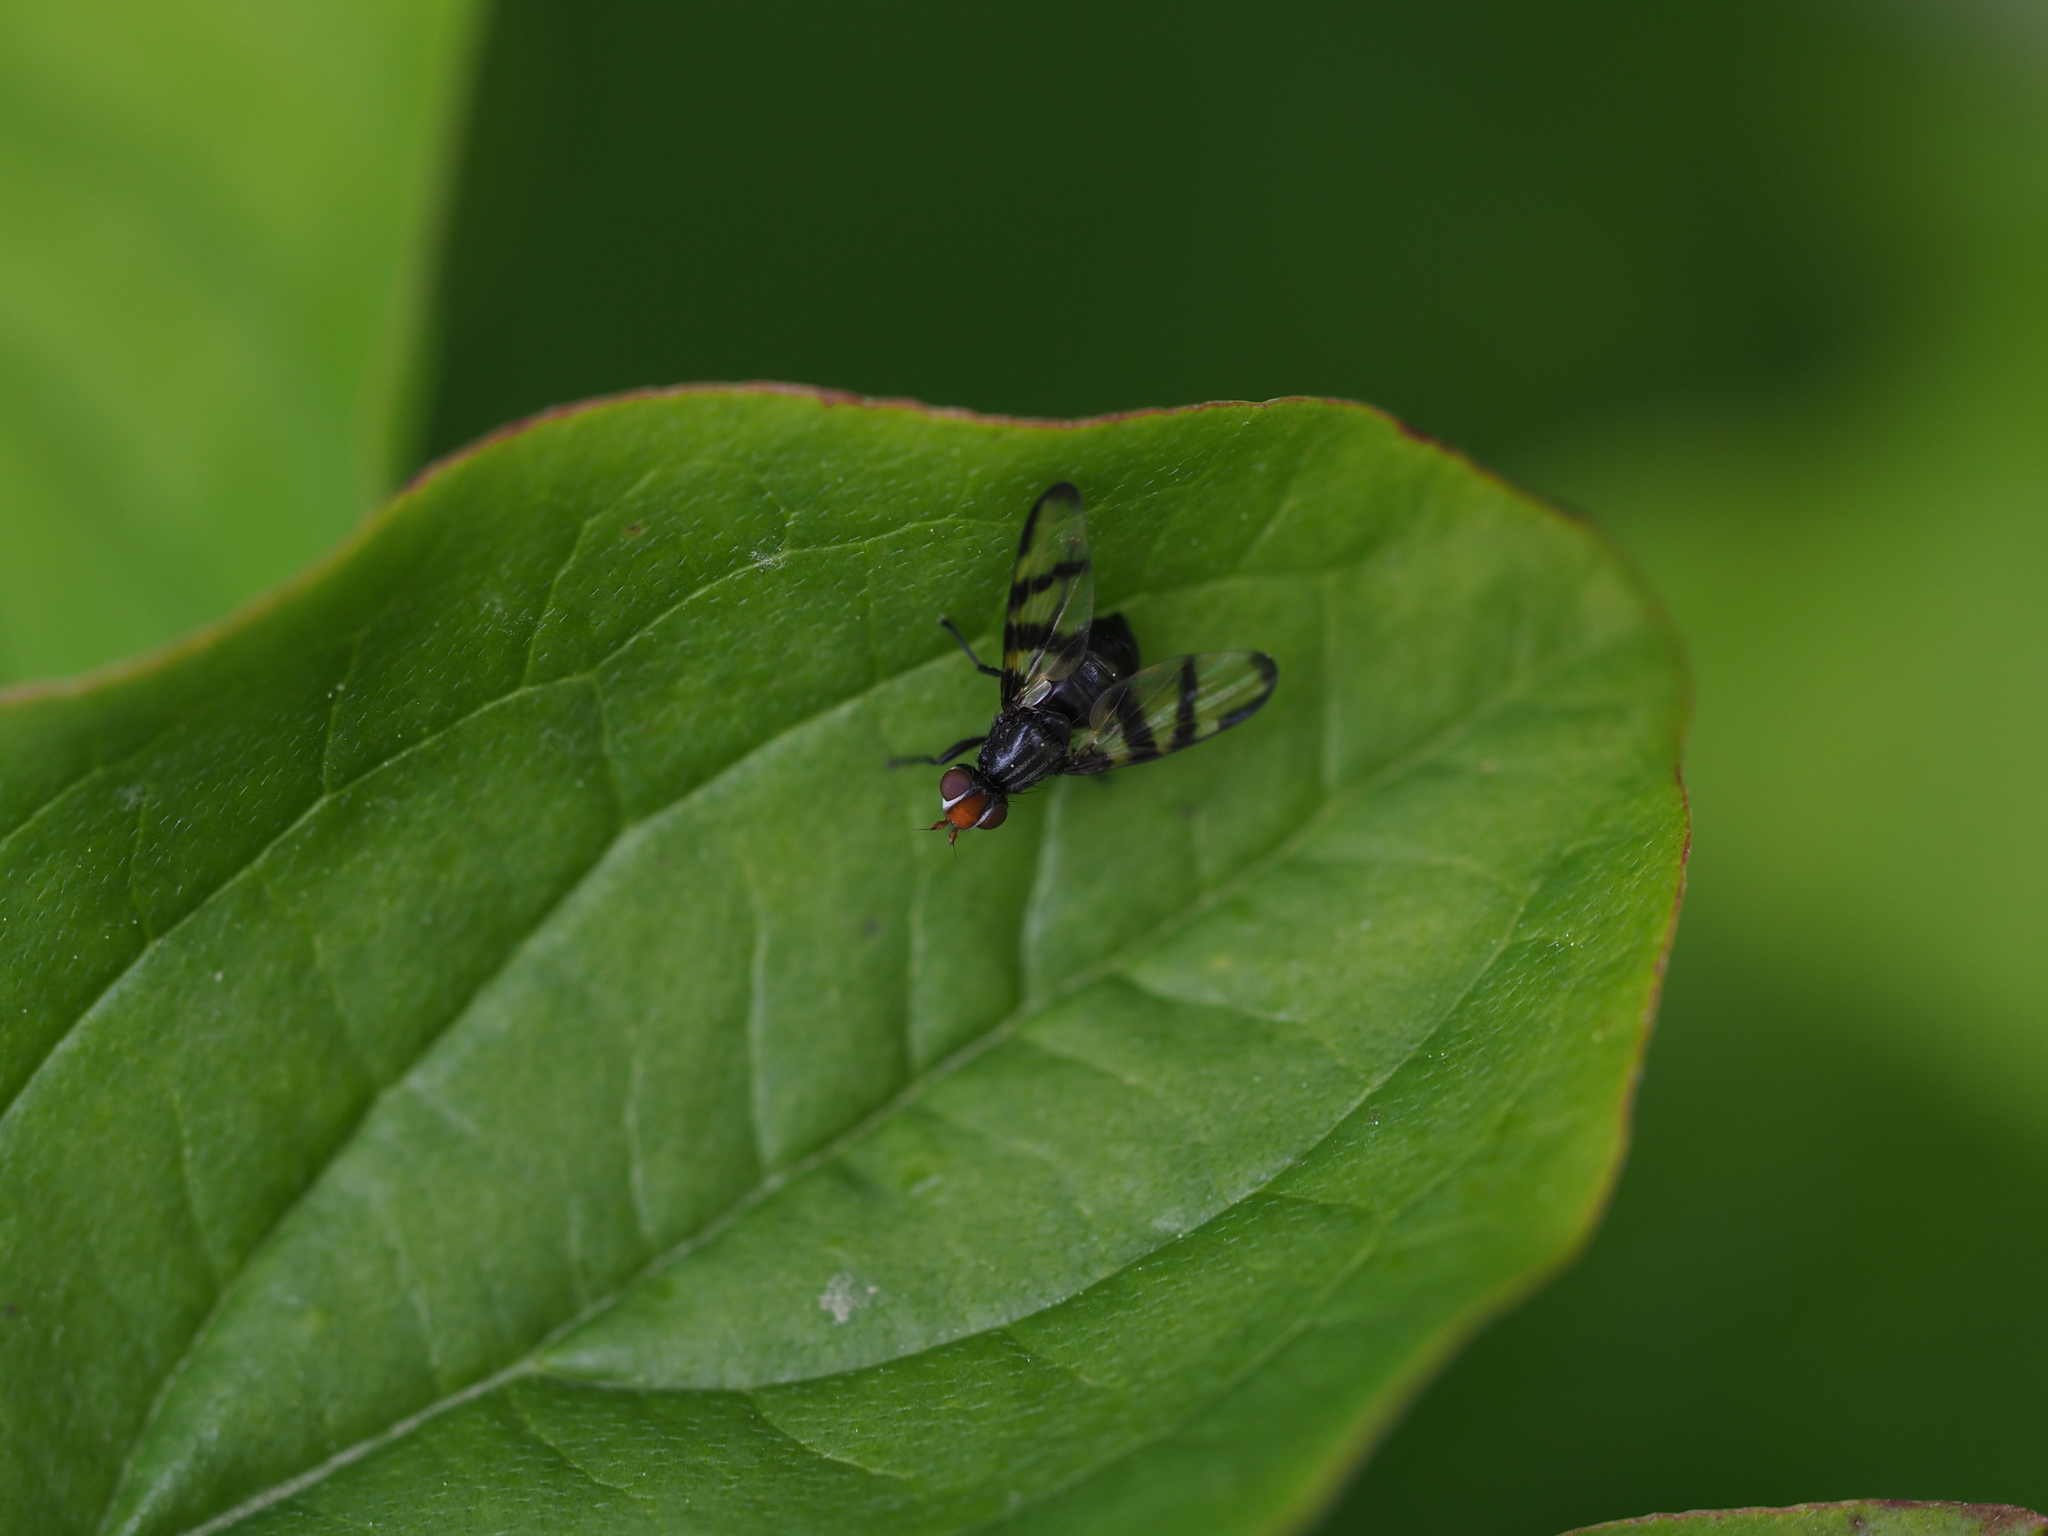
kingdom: Animalia
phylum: Arthropoda
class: Insecta
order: Diptera
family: Ulidiidae
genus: Systata
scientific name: Systata rivularis
